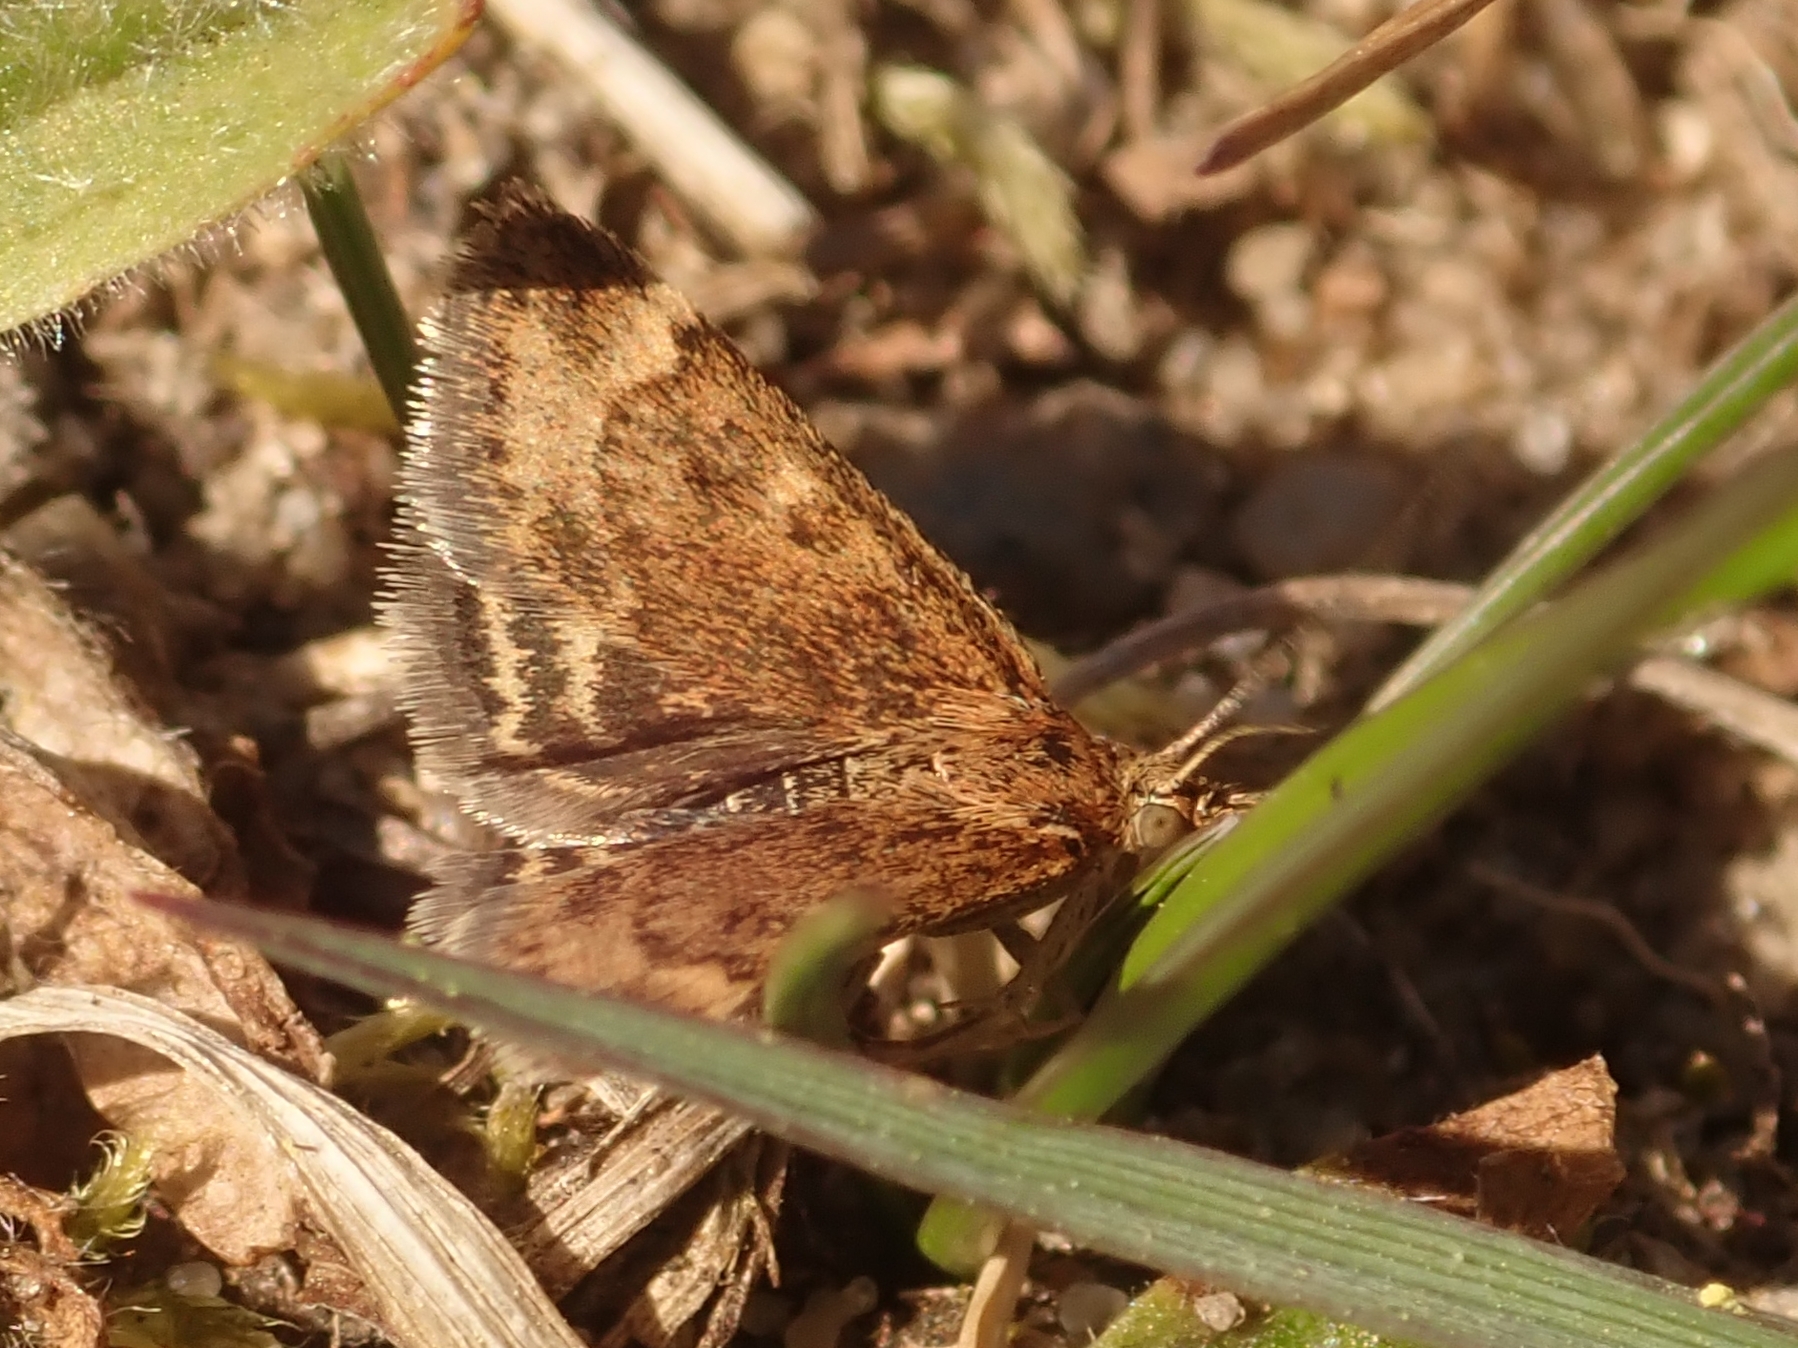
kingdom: Animalia
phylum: Arthropoda
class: Insecta
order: Lepidoptera
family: Crambidae
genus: Pyrausta
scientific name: Pyrausta despicata
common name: Straw-barred pearl
